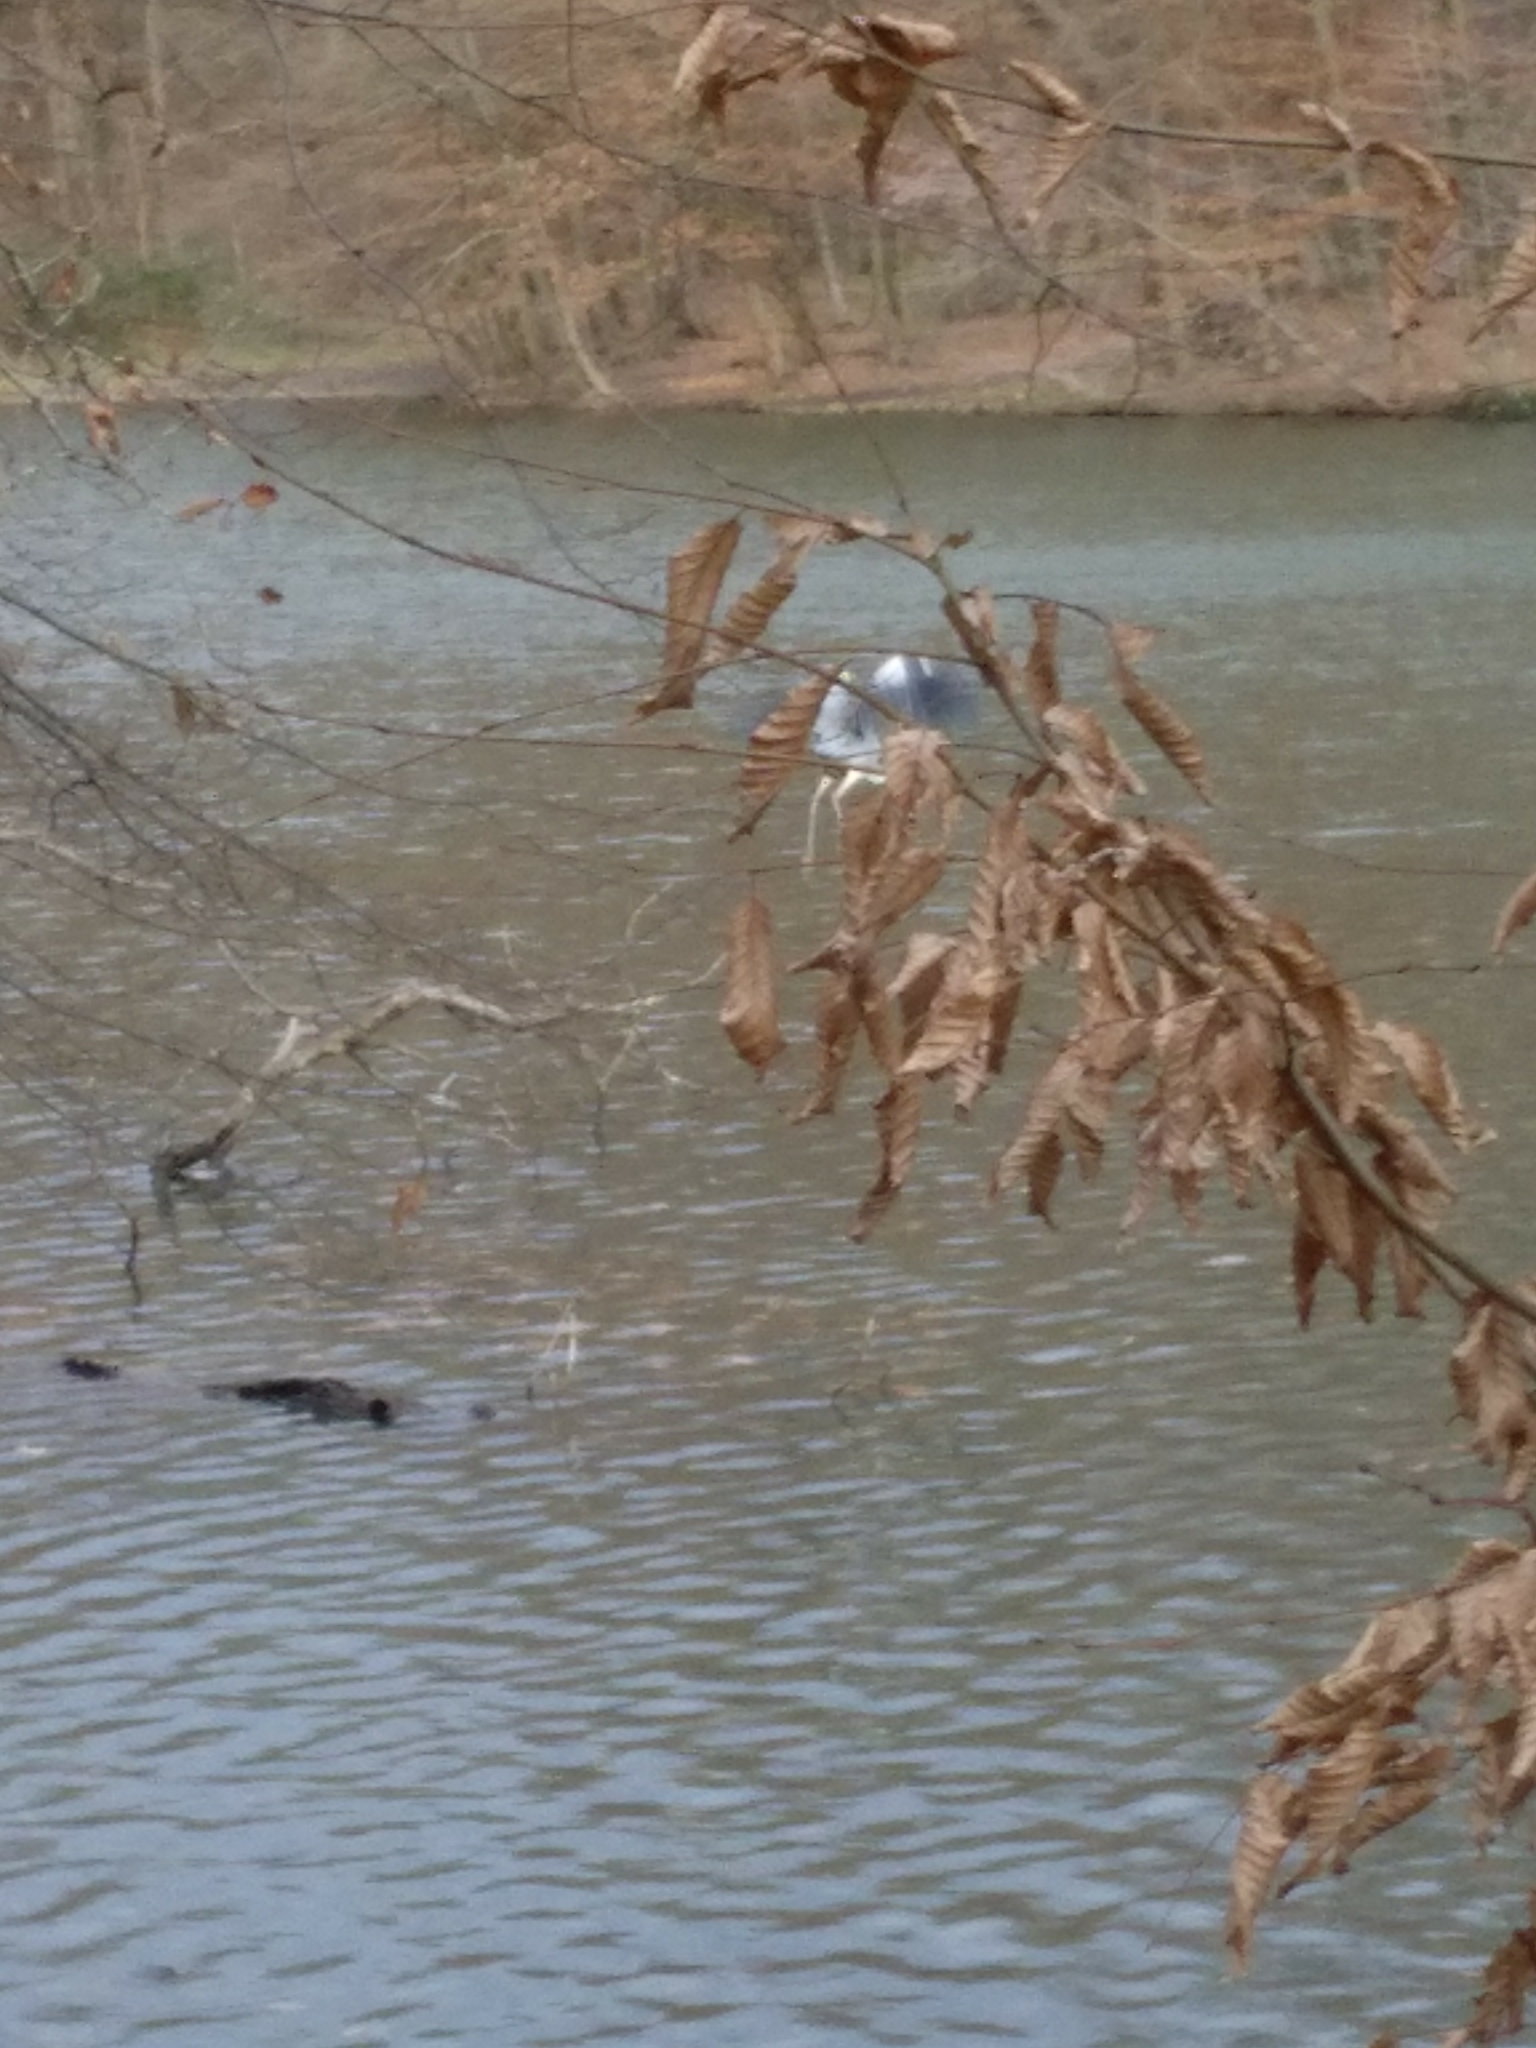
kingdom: Animalia
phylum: Chordata
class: Aves
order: Pelecaniformes
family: Ardeidae
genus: Ardea
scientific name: Ardea cinerea
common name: Grey heron
